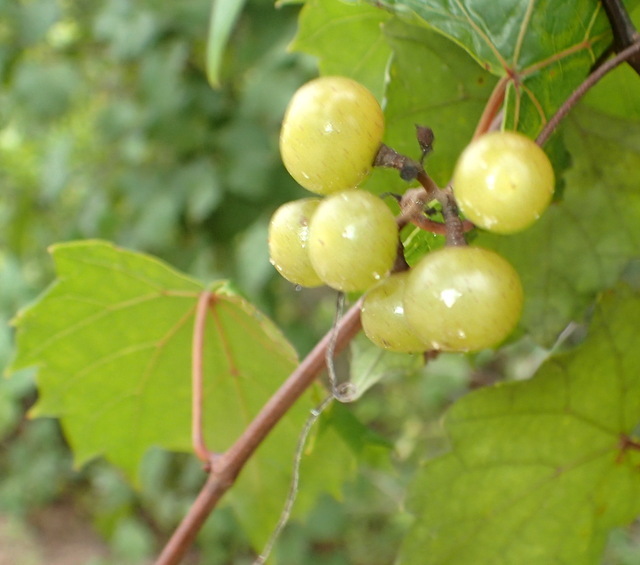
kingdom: Plantae
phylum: Tracheophyta
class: Magnoliopsida
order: Vitales
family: Vitaceae
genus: Vitis
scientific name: Vitis rotundifolia
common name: Muscadine grape
